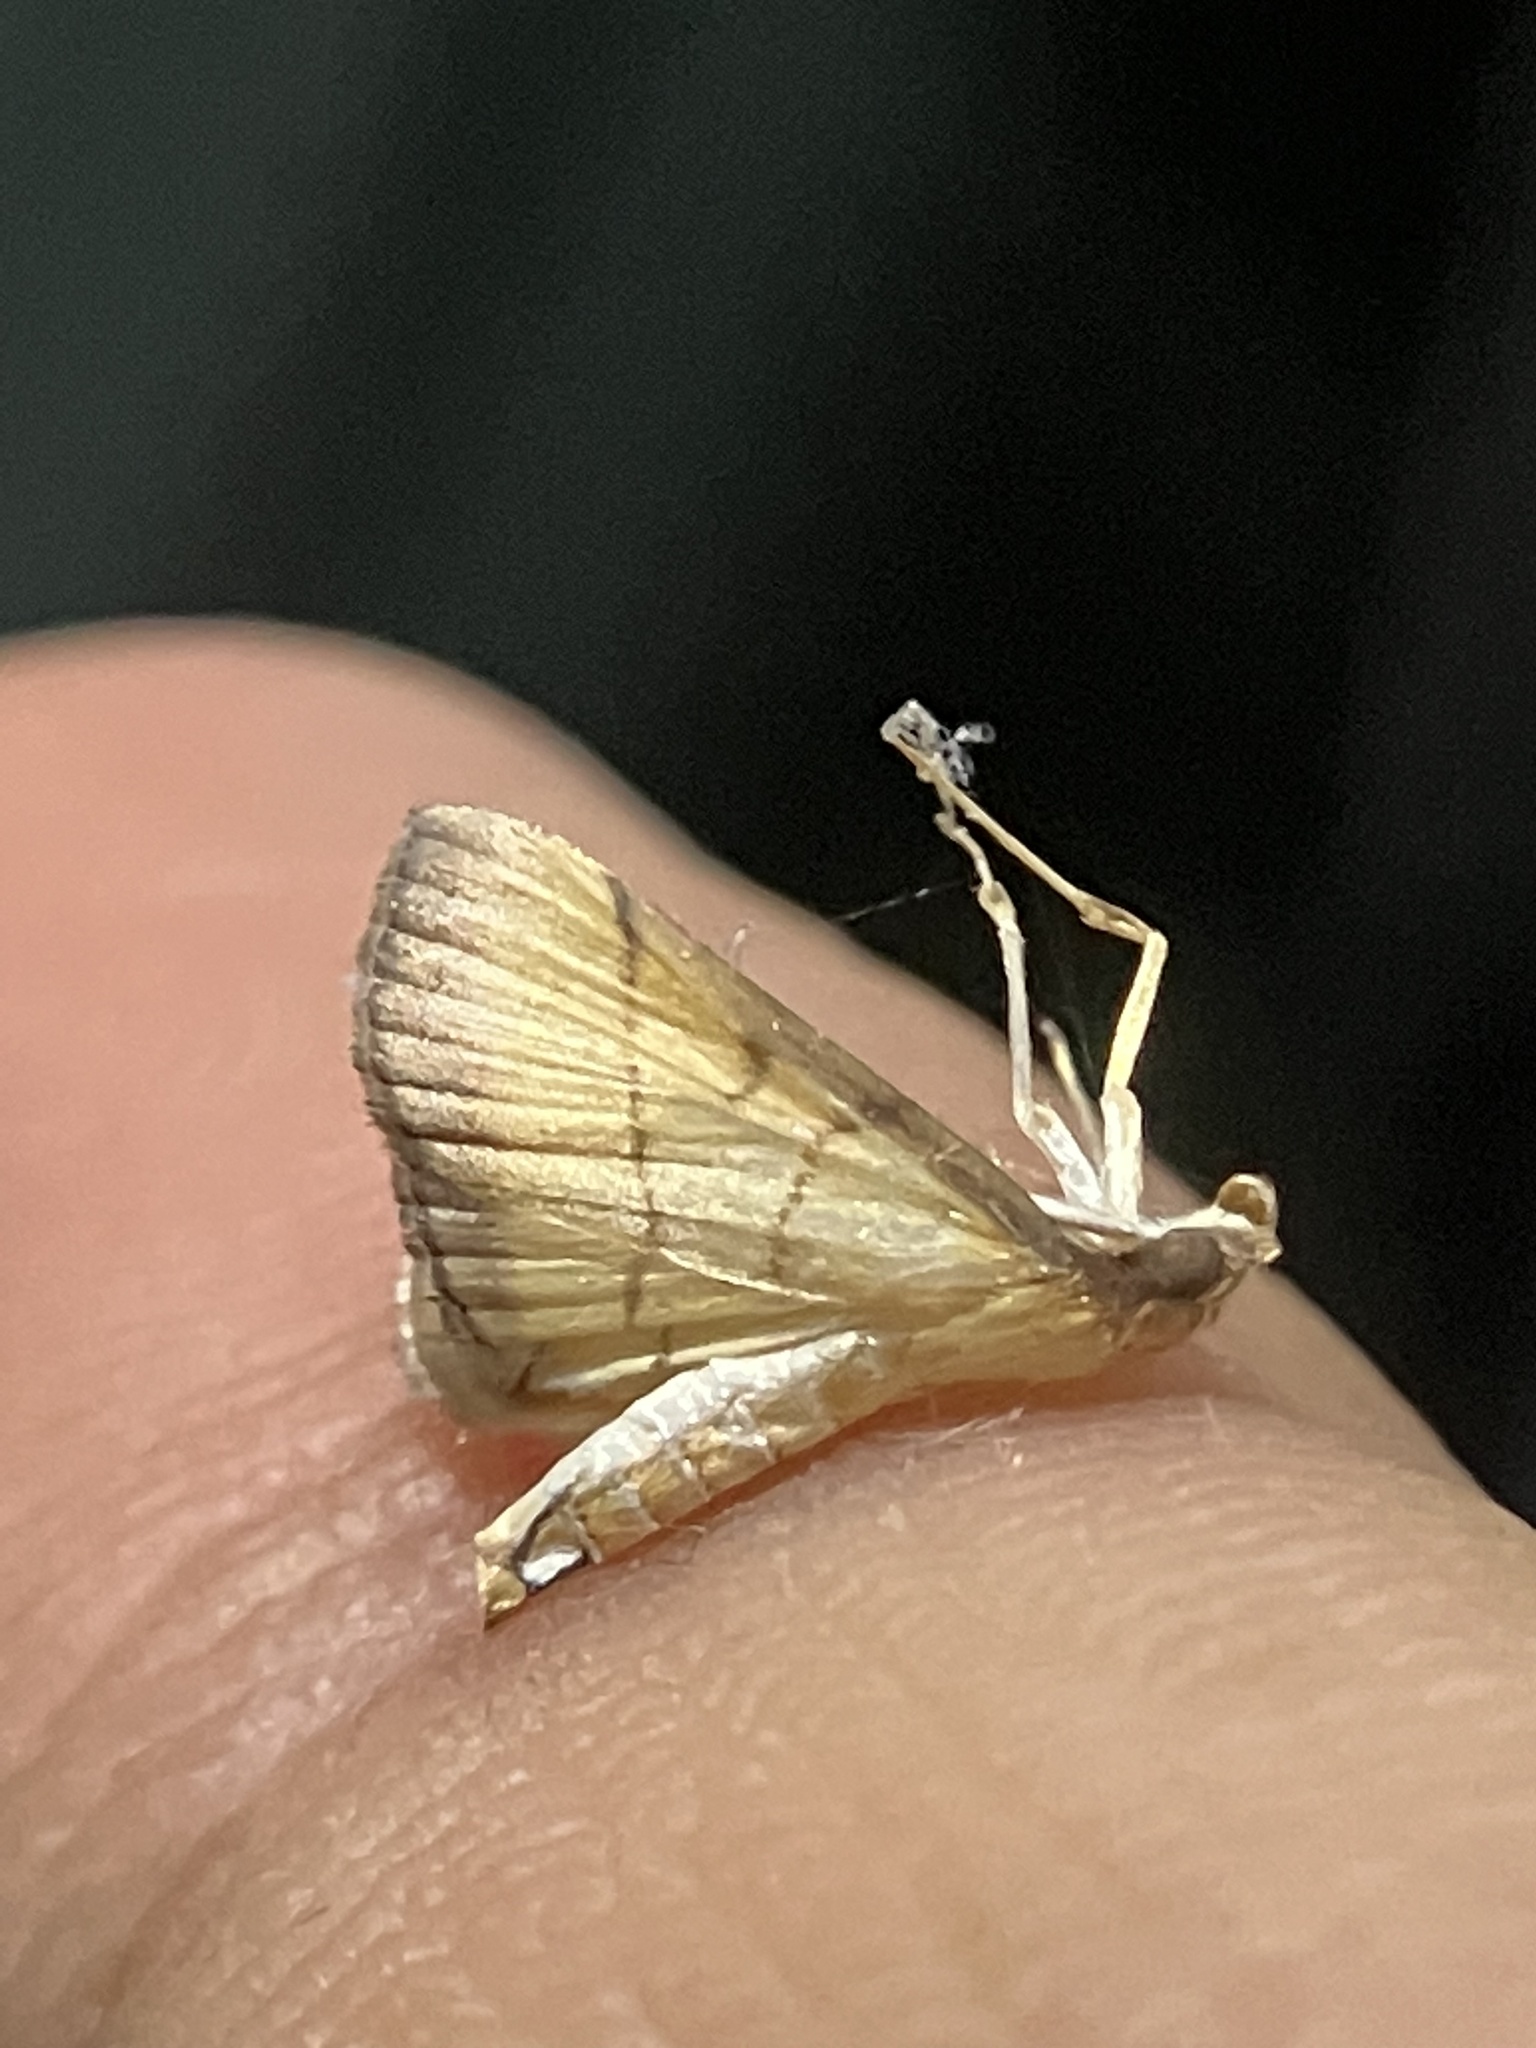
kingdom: Animalia
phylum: Arthropoda
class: Insecta
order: Lepidoptera
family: Crambidae
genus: Cnaphalocrocis
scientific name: Cnaphalocrocis medinalis
